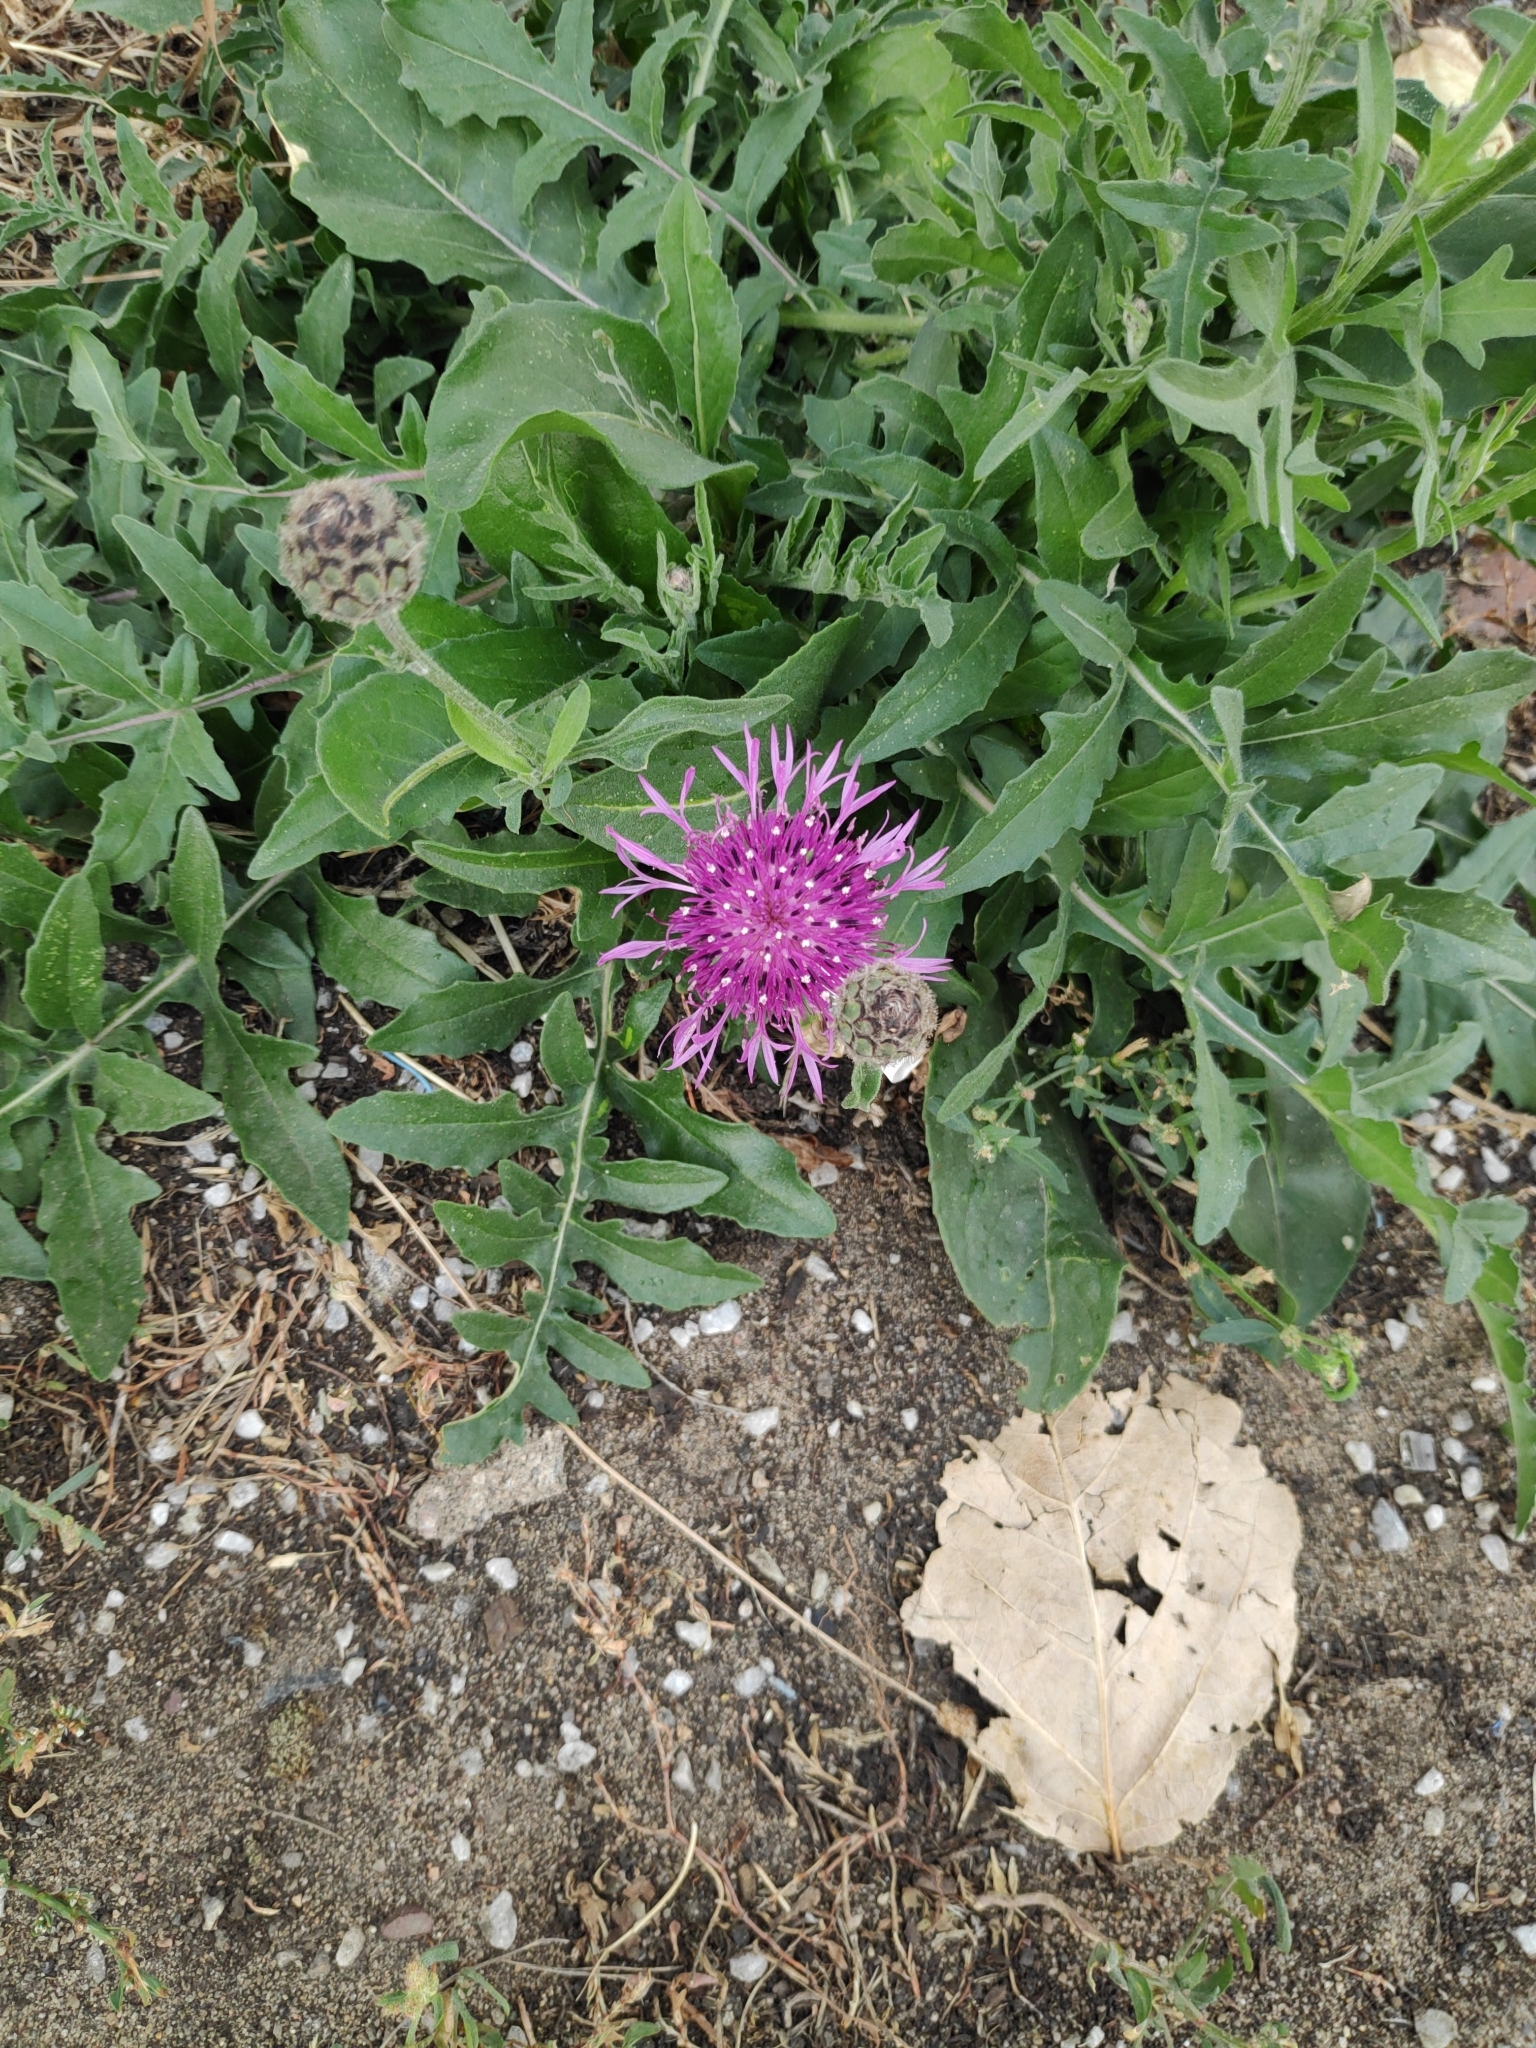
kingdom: Plantae
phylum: Tracheophyta
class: Magnoliopsida
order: Asterales
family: Asteraceae
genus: Centaurea
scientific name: Centaurea scabiosa
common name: Greater knapweed
